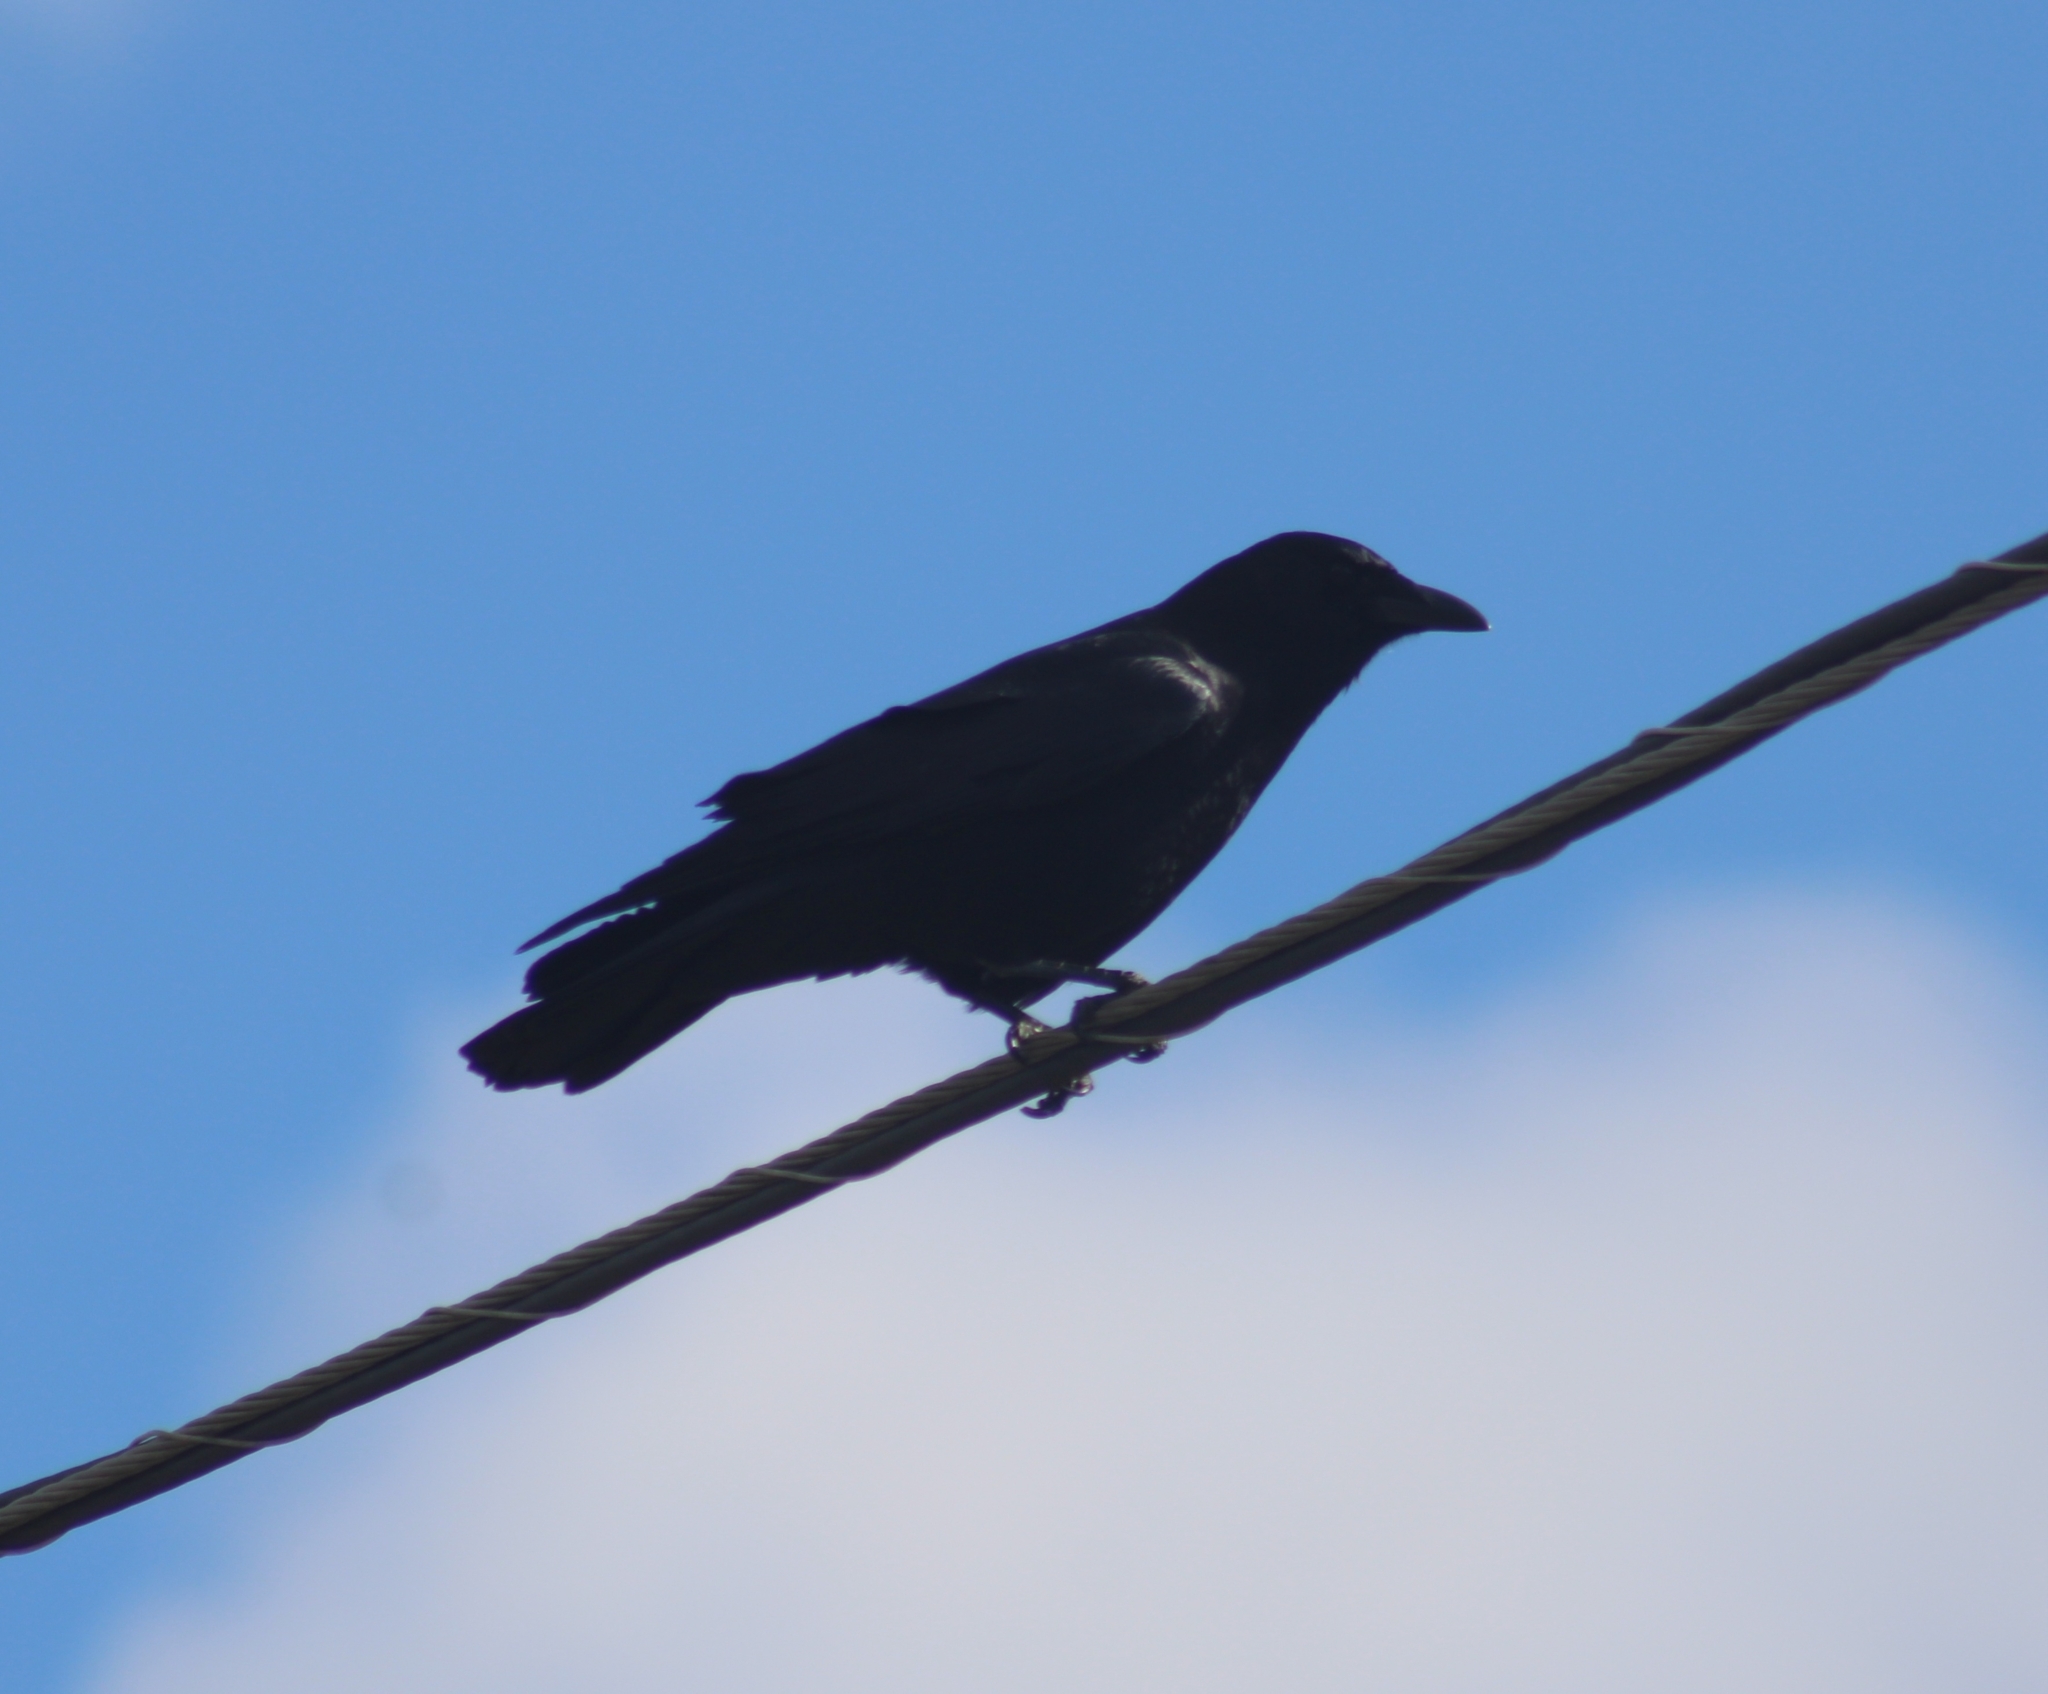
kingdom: Animalia
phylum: Chordata
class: Aves
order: Passeriformes
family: Corvidae
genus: Corvus
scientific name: Corvus brachyrhynchos
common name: American crow
